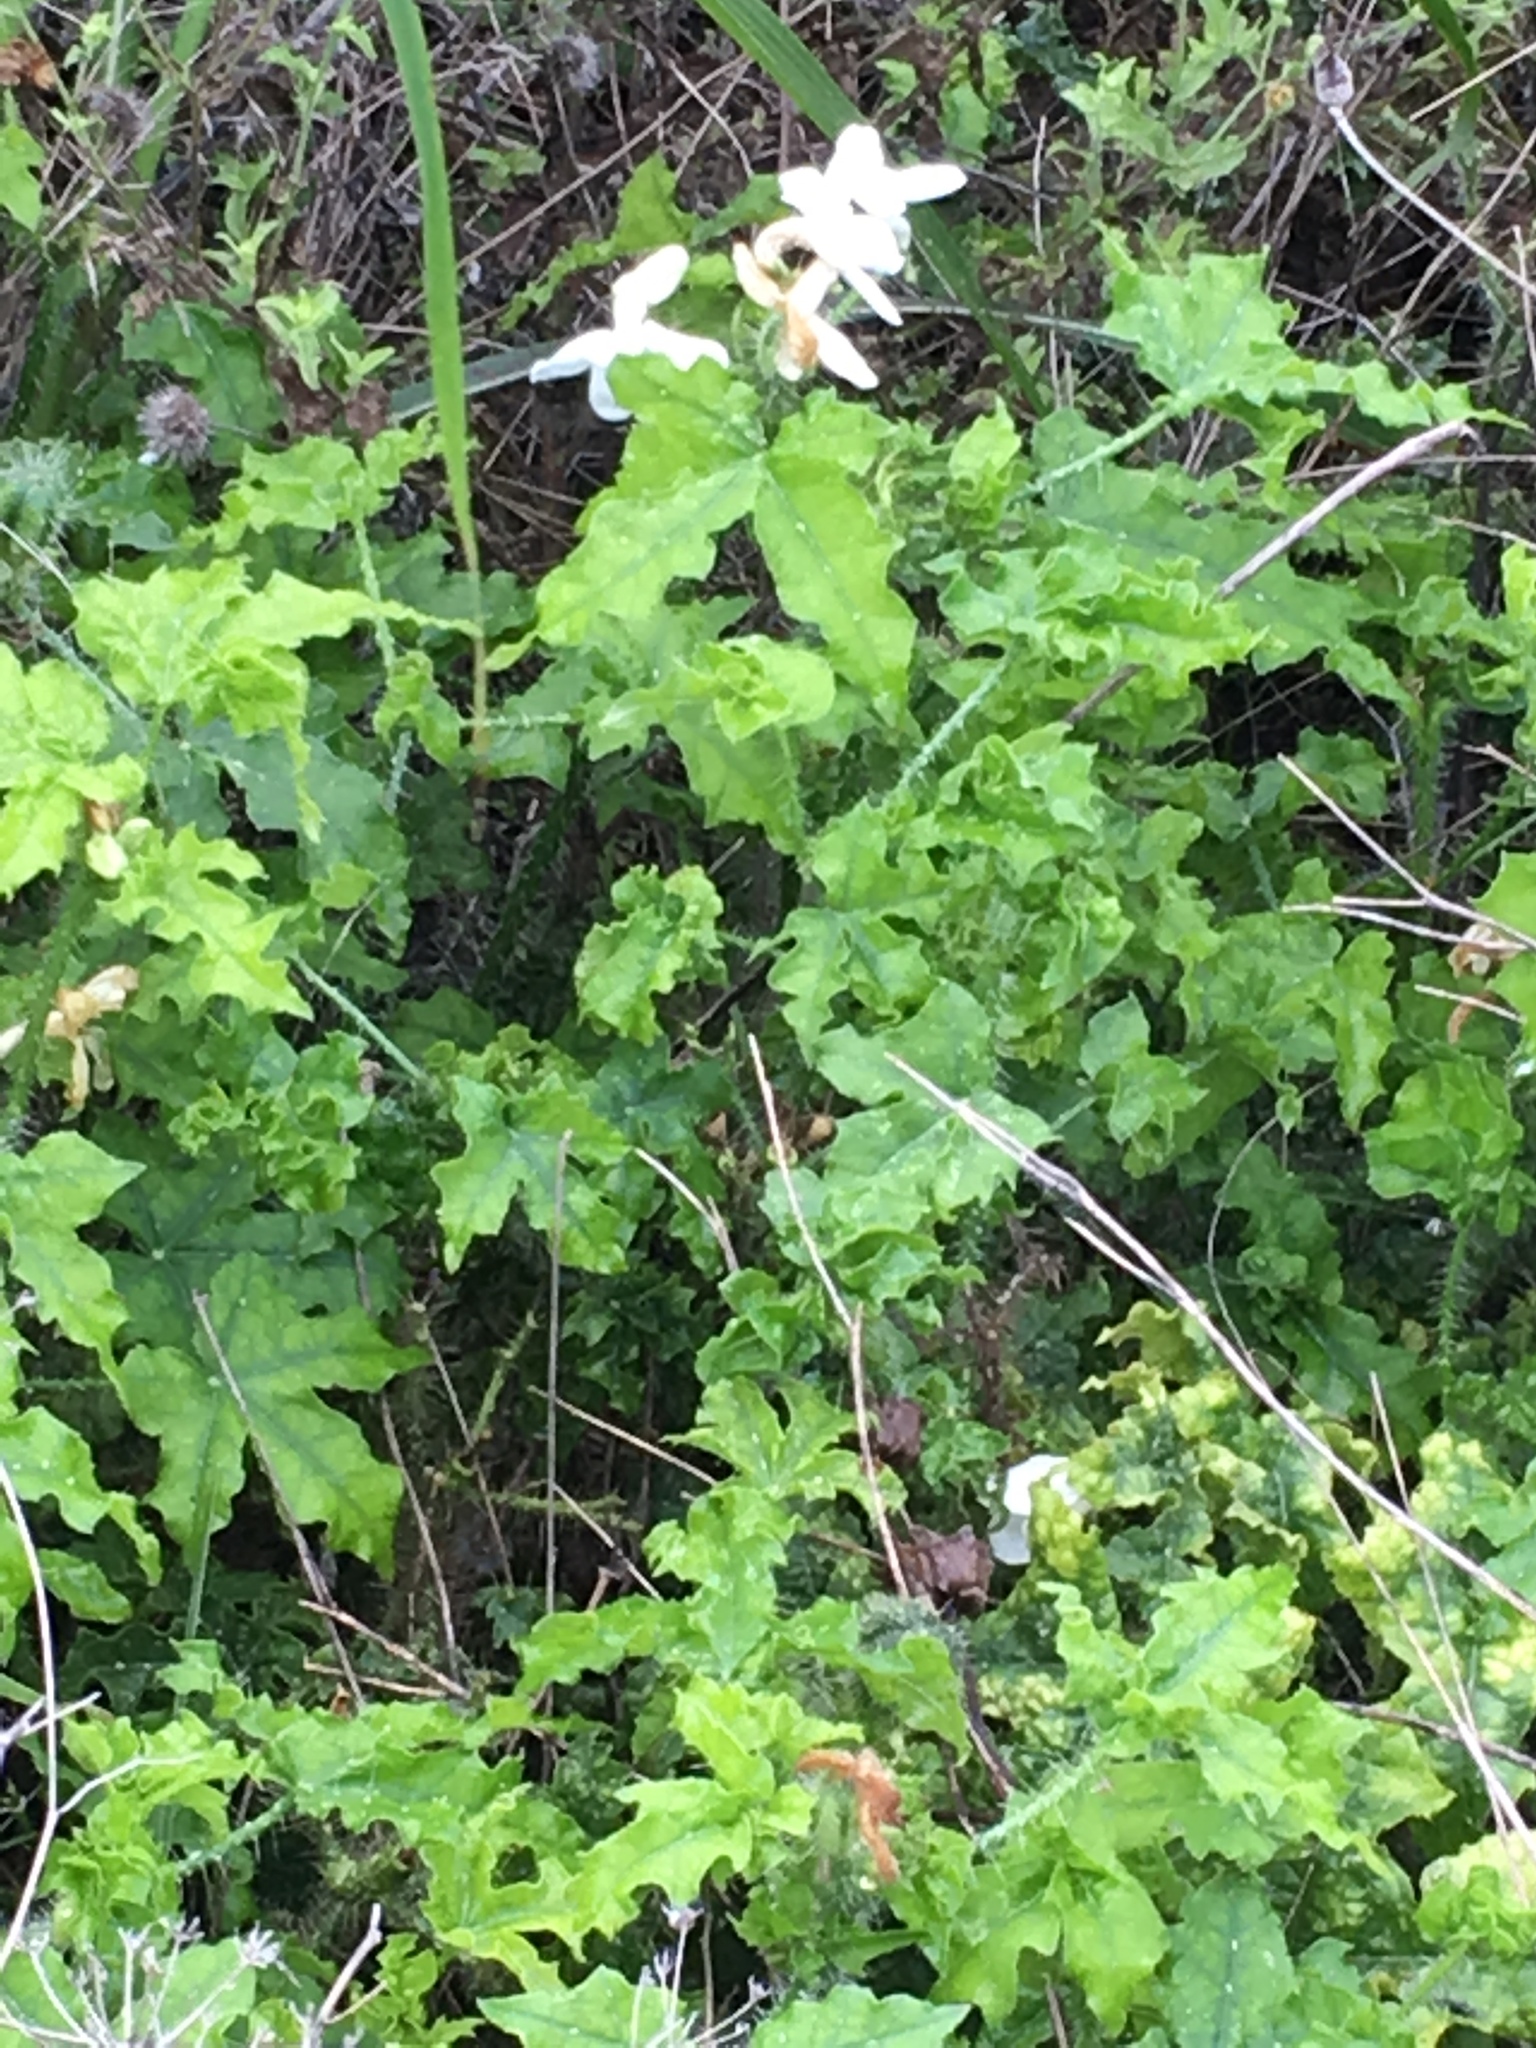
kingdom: Plantae
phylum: Tracheophyta
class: Magnoliopsida
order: Malpighiales
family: Euphorbiaceae
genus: Cnidoscolus
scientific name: Cnidoscolus texanus
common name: Texas bull-nettle
